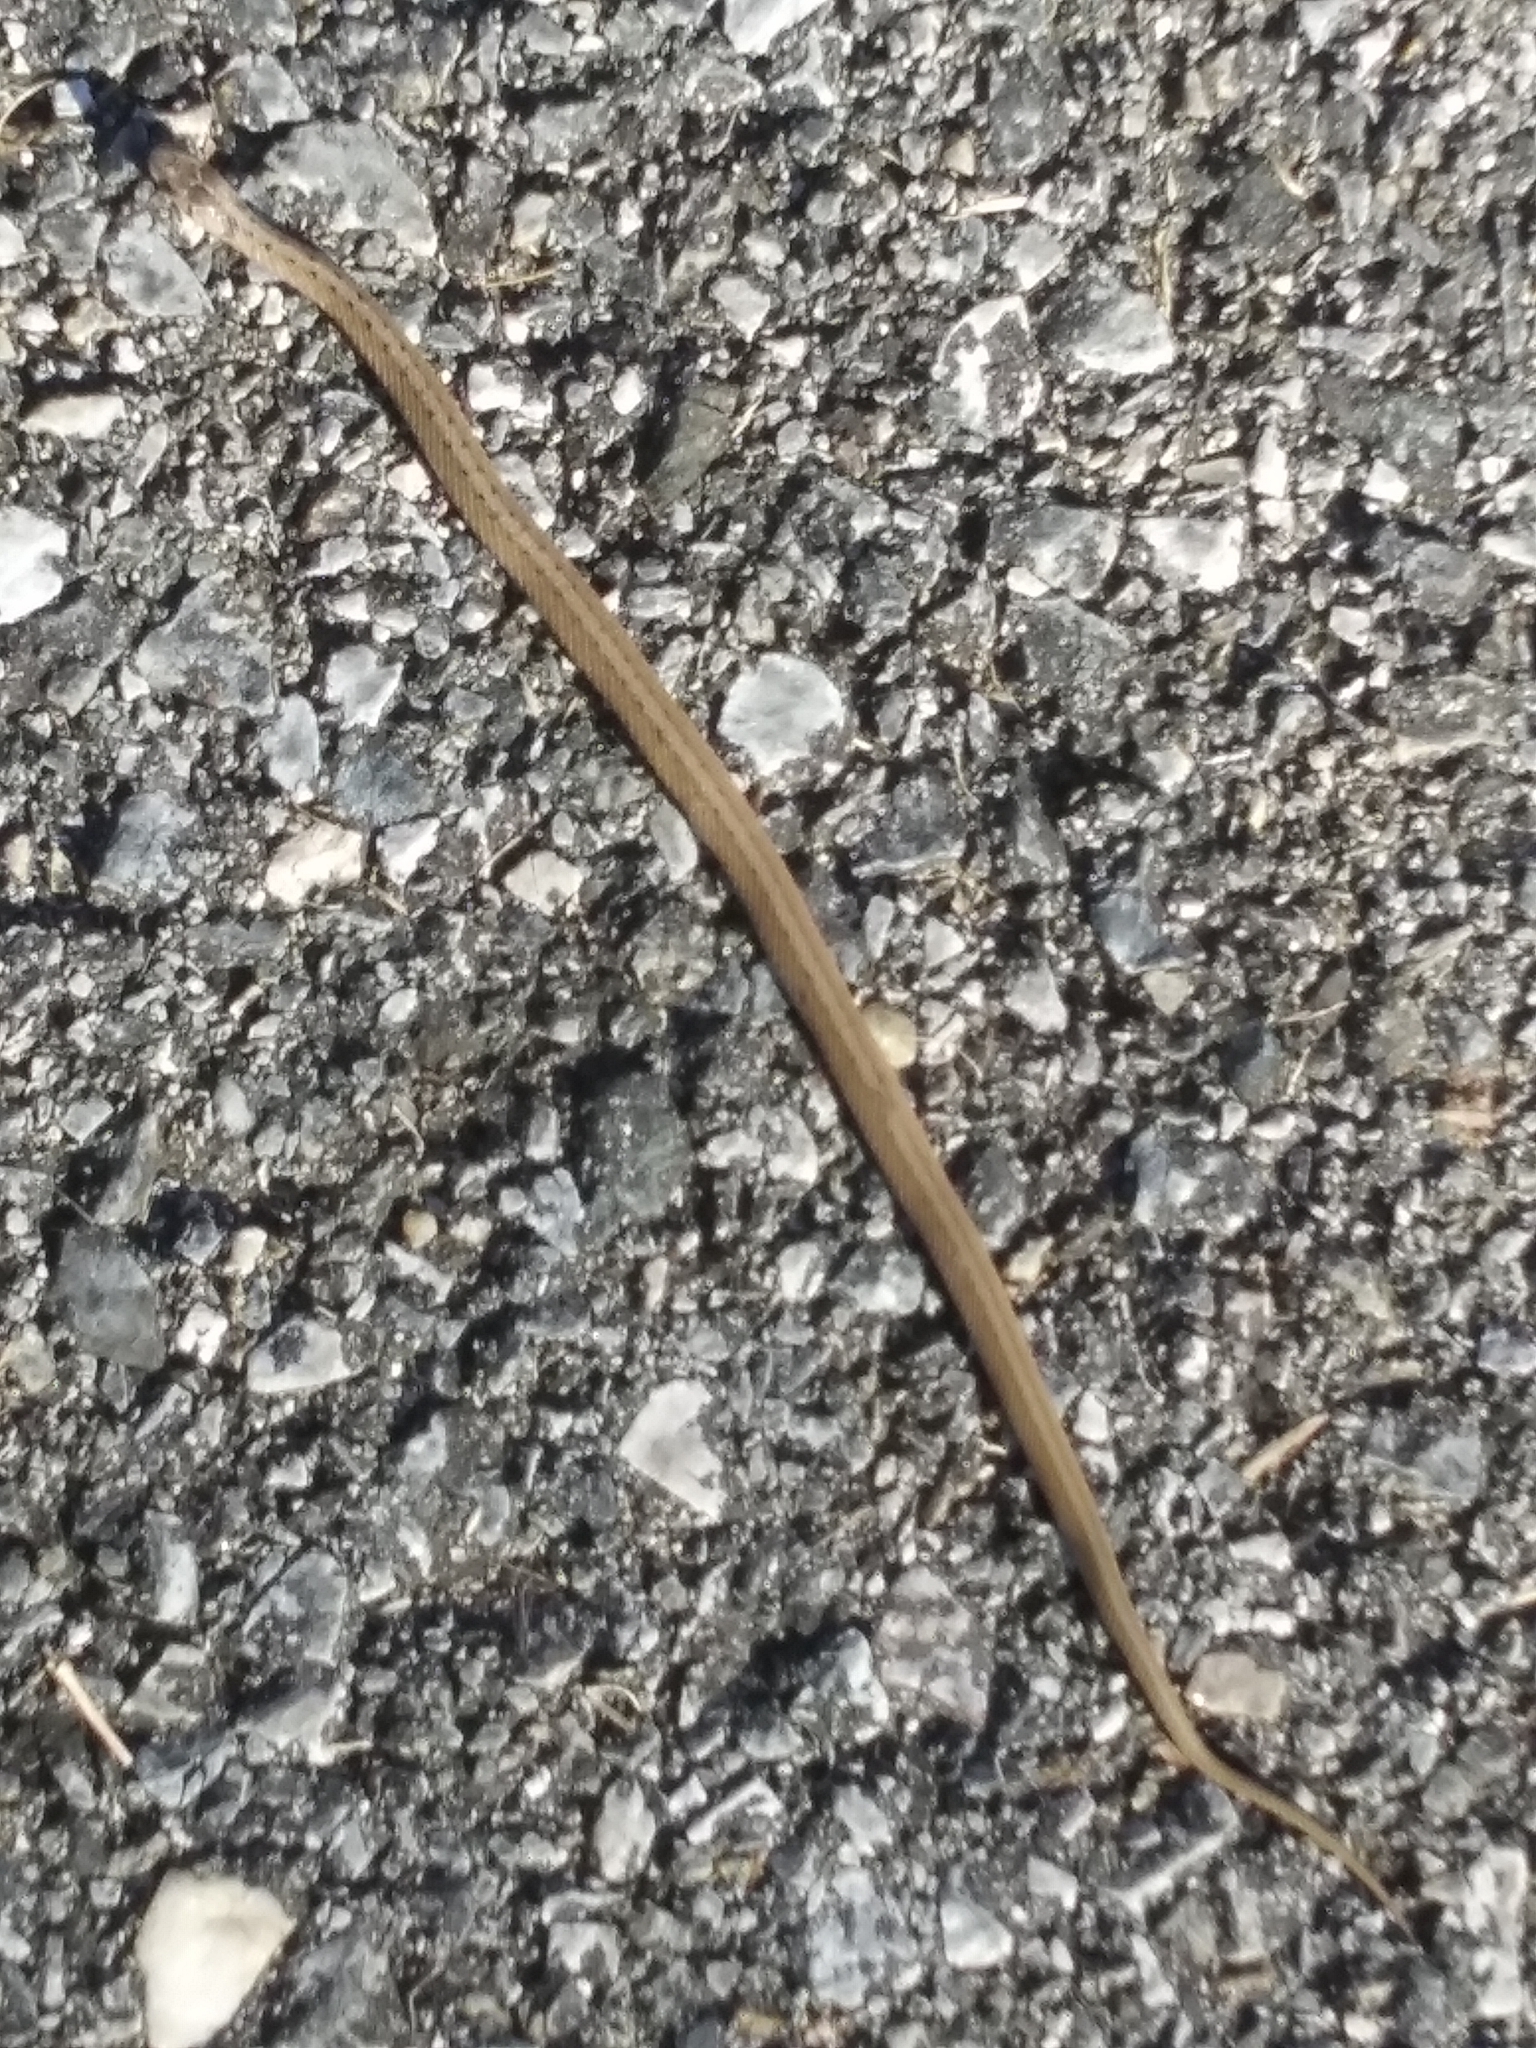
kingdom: Animalia
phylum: Chordata
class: Squamata
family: Colubridae
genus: Storeria
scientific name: Storeria dekayi
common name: (dekay’s) brown snake
